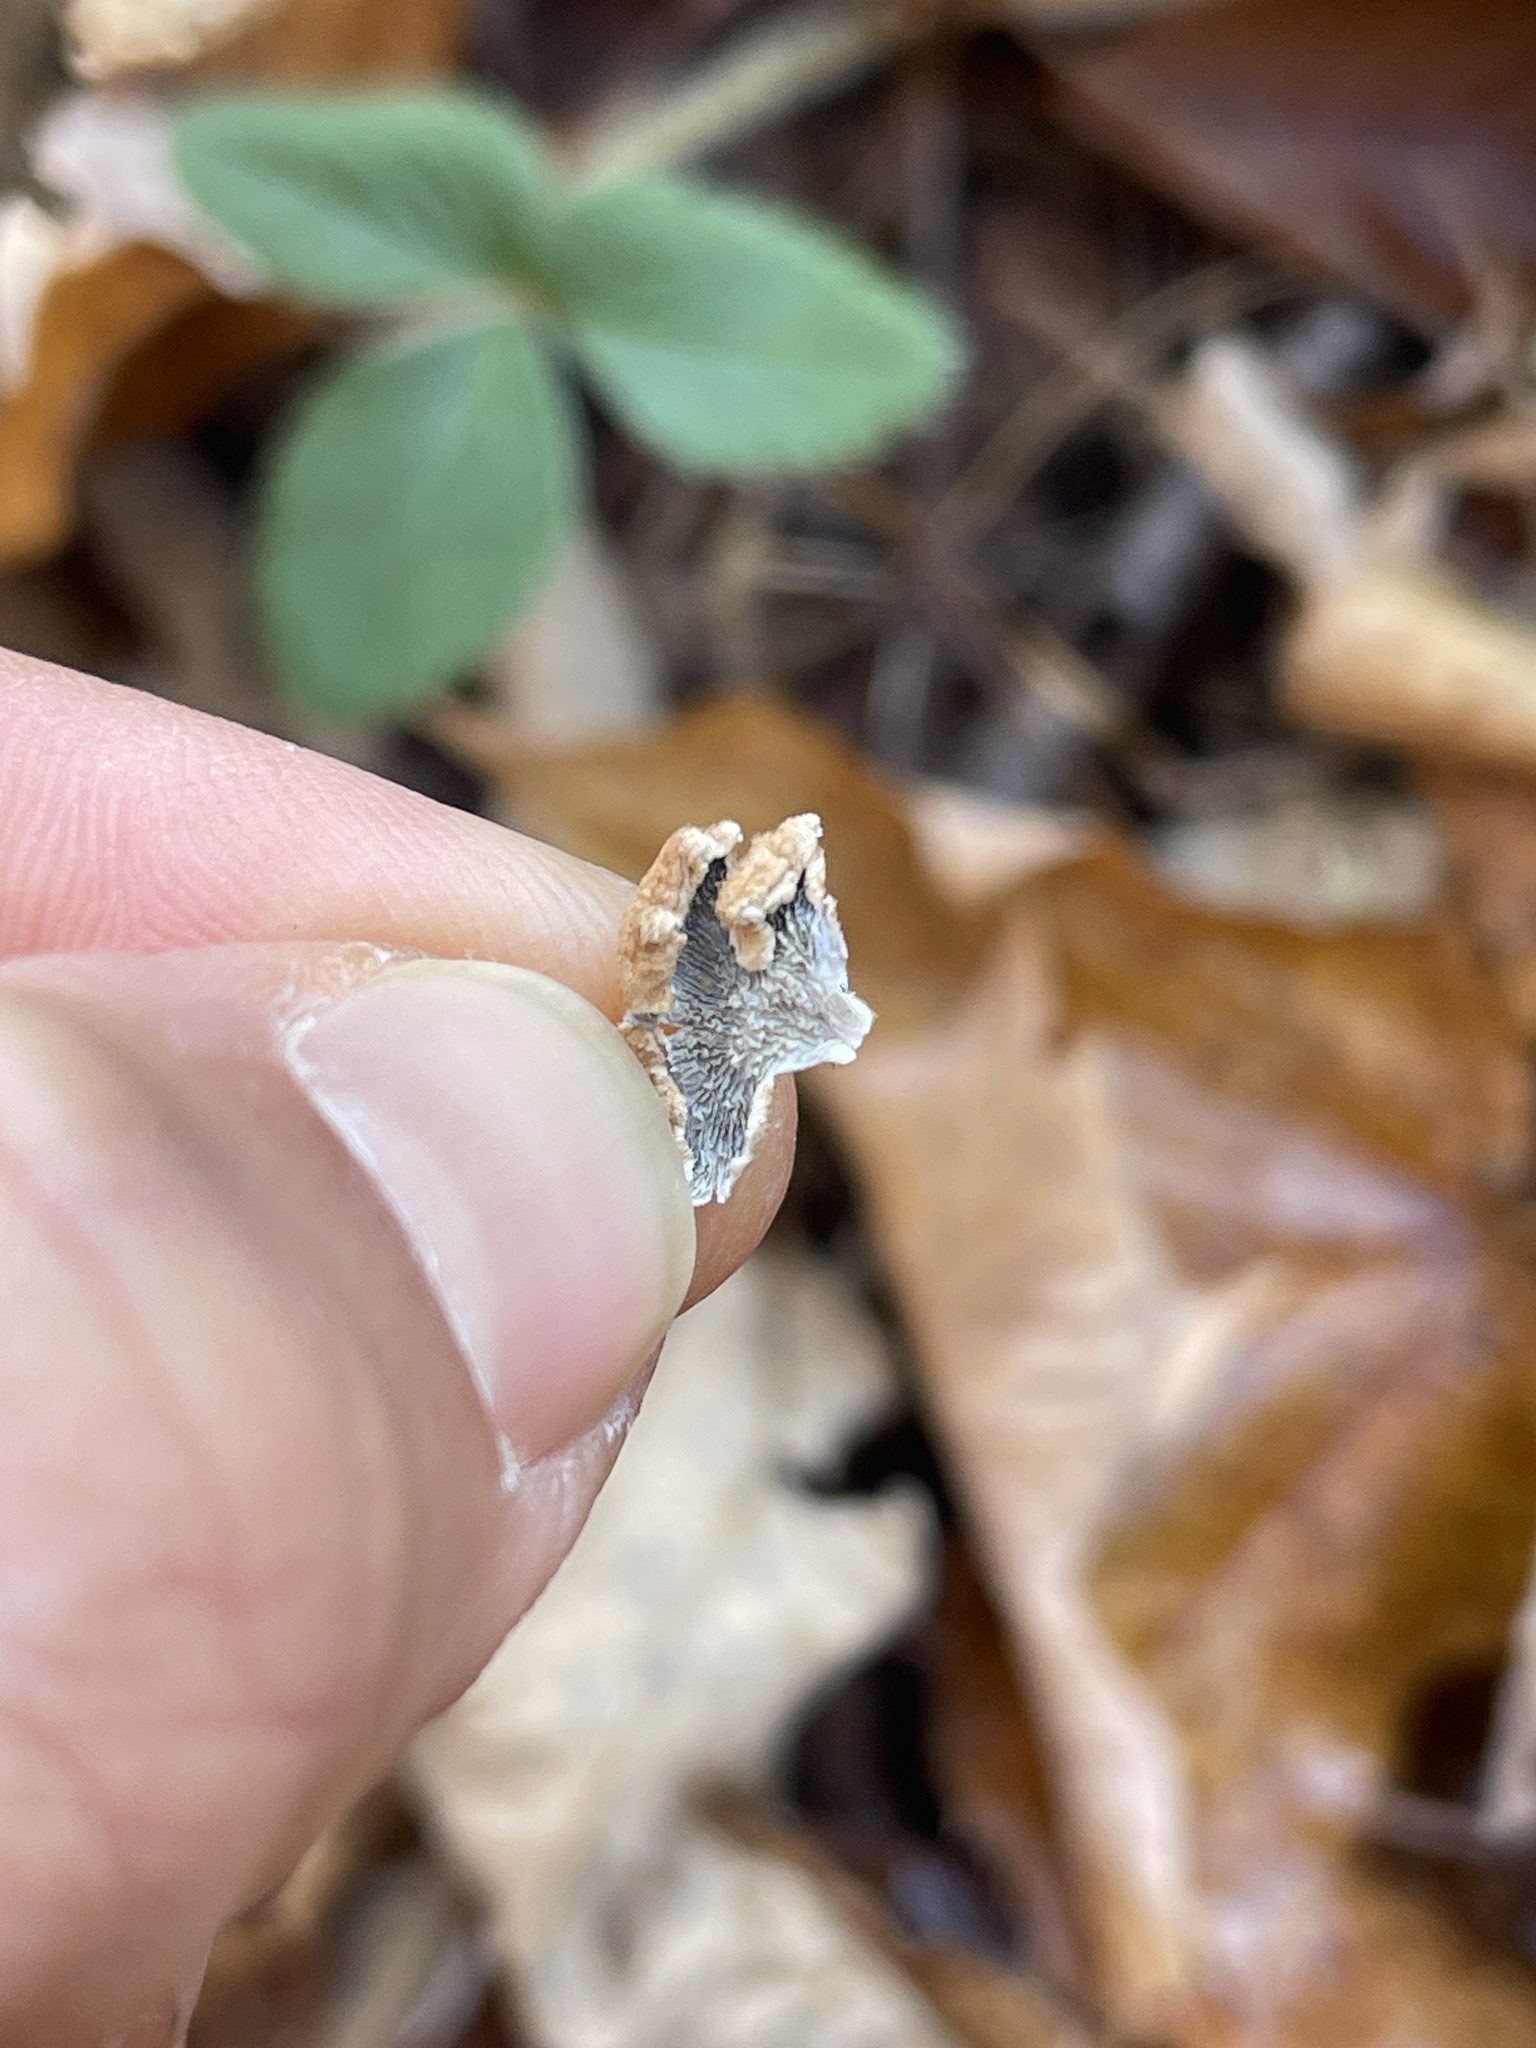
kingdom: Fungi
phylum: Basidiomycota
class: Agaricomycetes
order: Amylocorticiales
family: Amylocorticiaceae
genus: Plicaturopsis
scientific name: Plicaturopsis crispa
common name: Crimped gill
